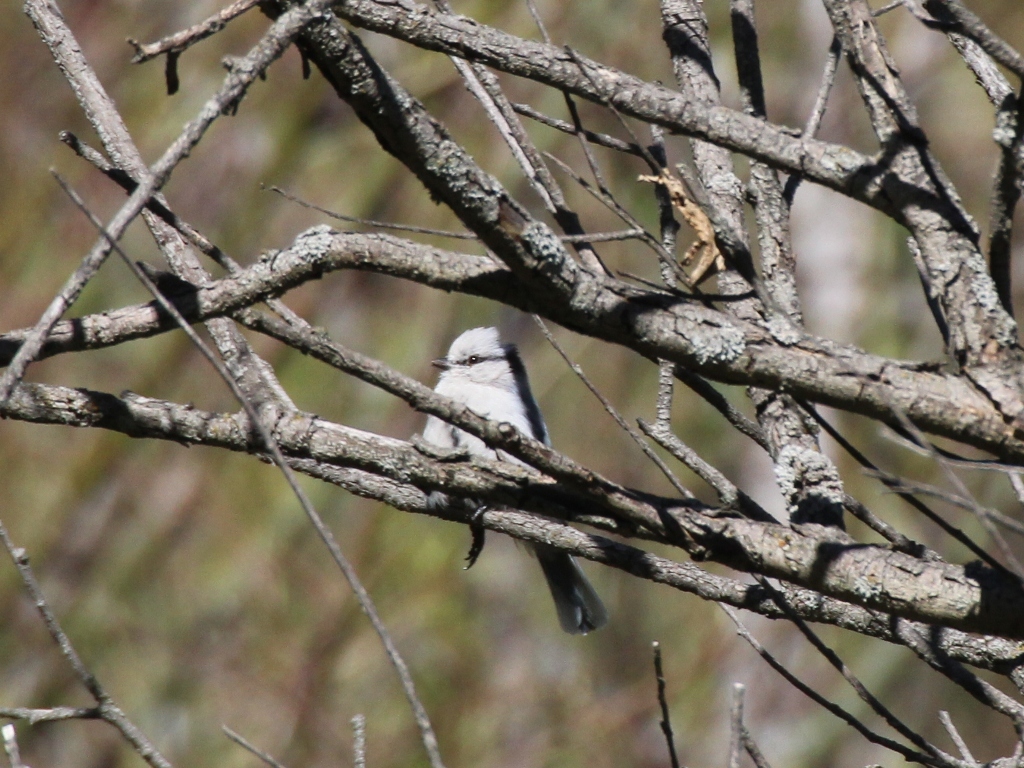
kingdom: Animalia
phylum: Chordata
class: Aves
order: Passeriformes
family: Paridae
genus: Cyanistes
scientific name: Cyanistes cyanus
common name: Azure tit
